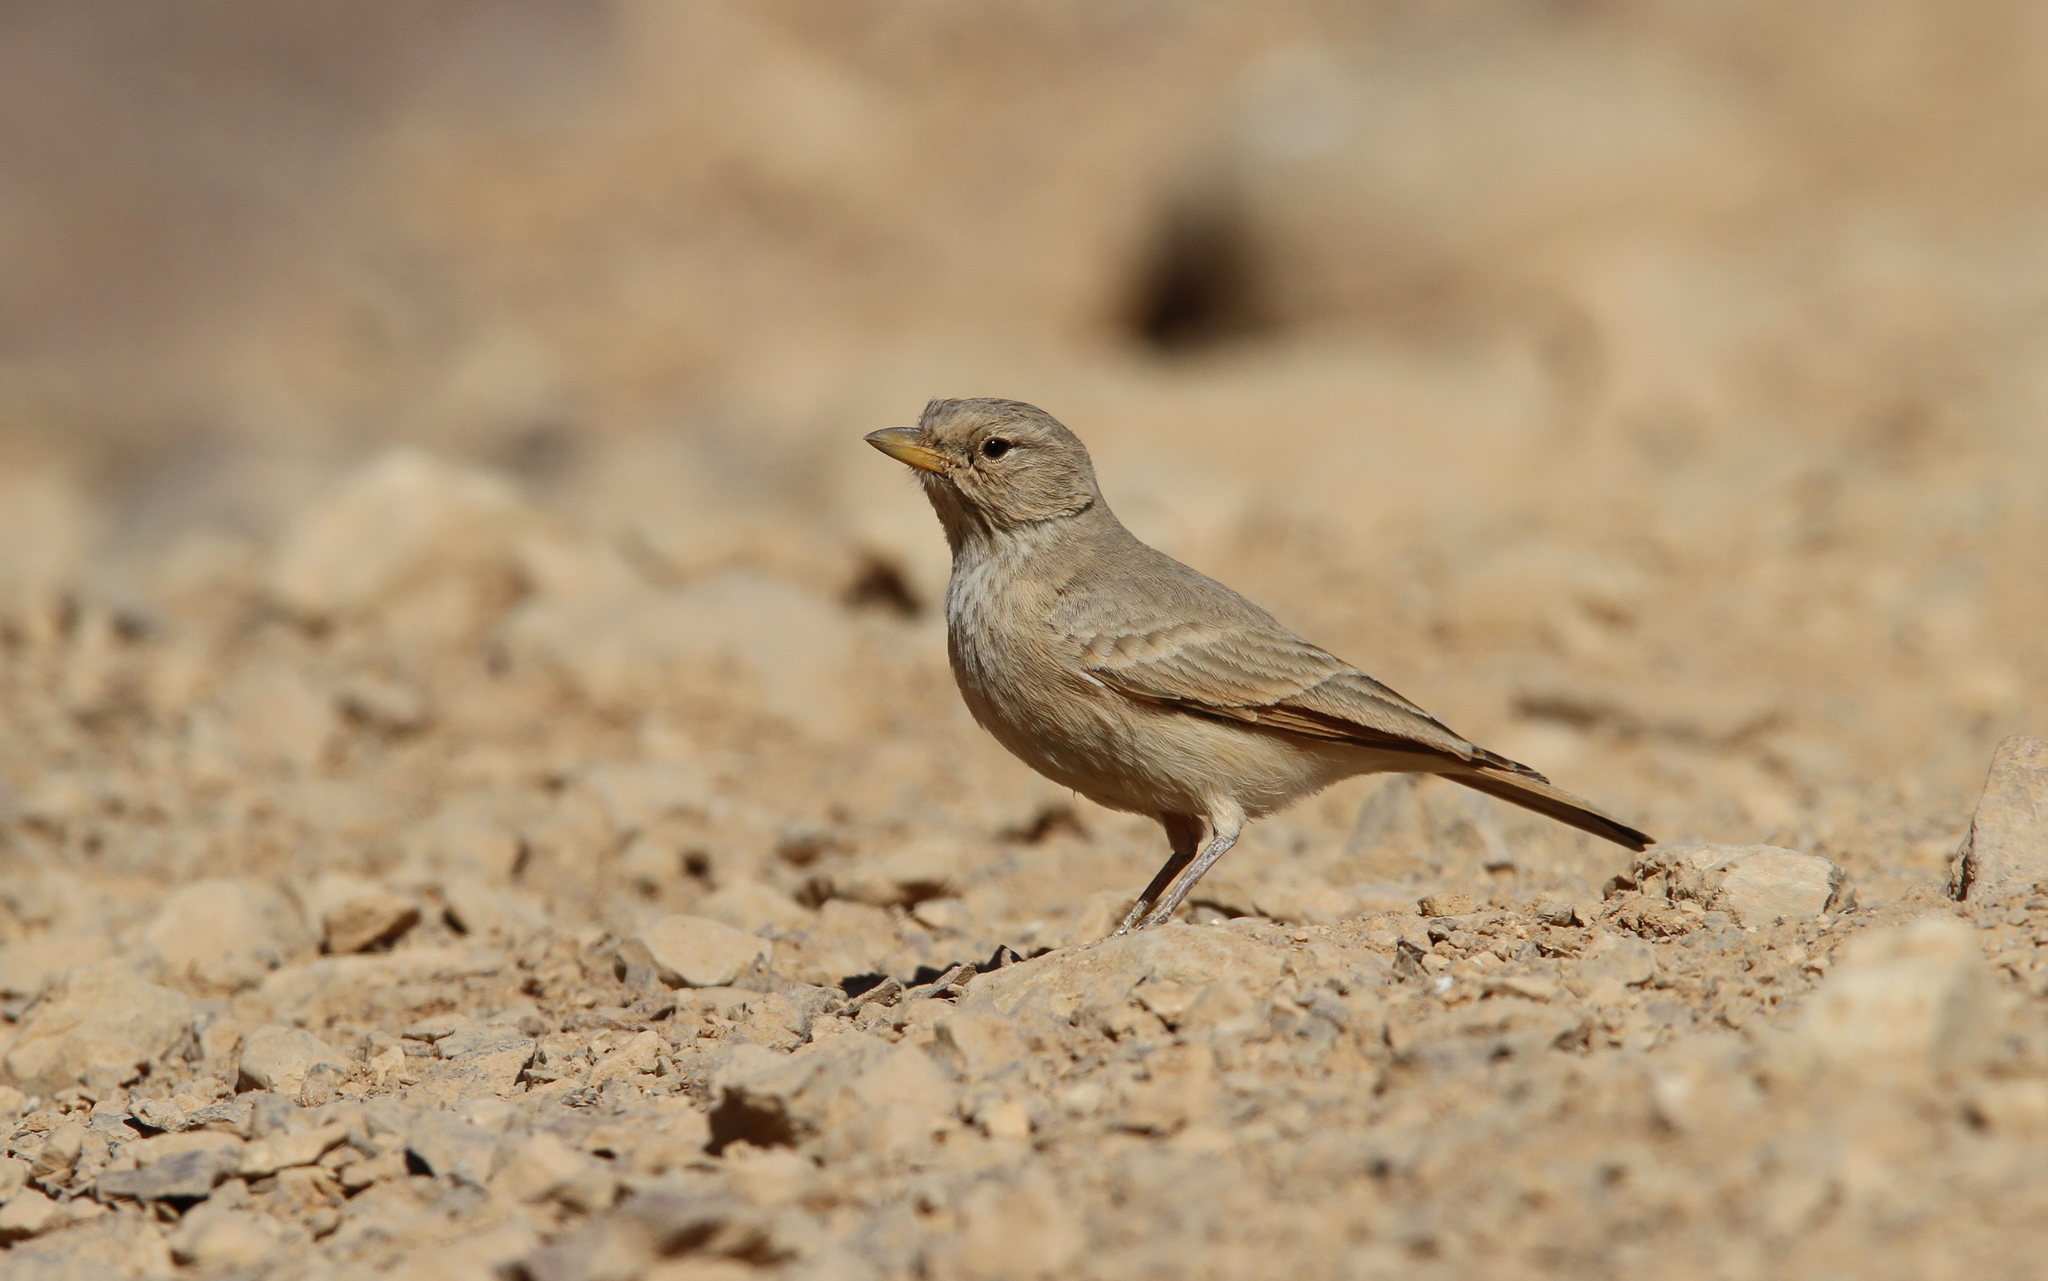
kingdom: Animalia
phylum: Chordata
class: Aves
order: Passeriformes
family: Alaudidae
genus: Ammomanes
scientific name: Ammomanes deserti
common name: Desert lark
